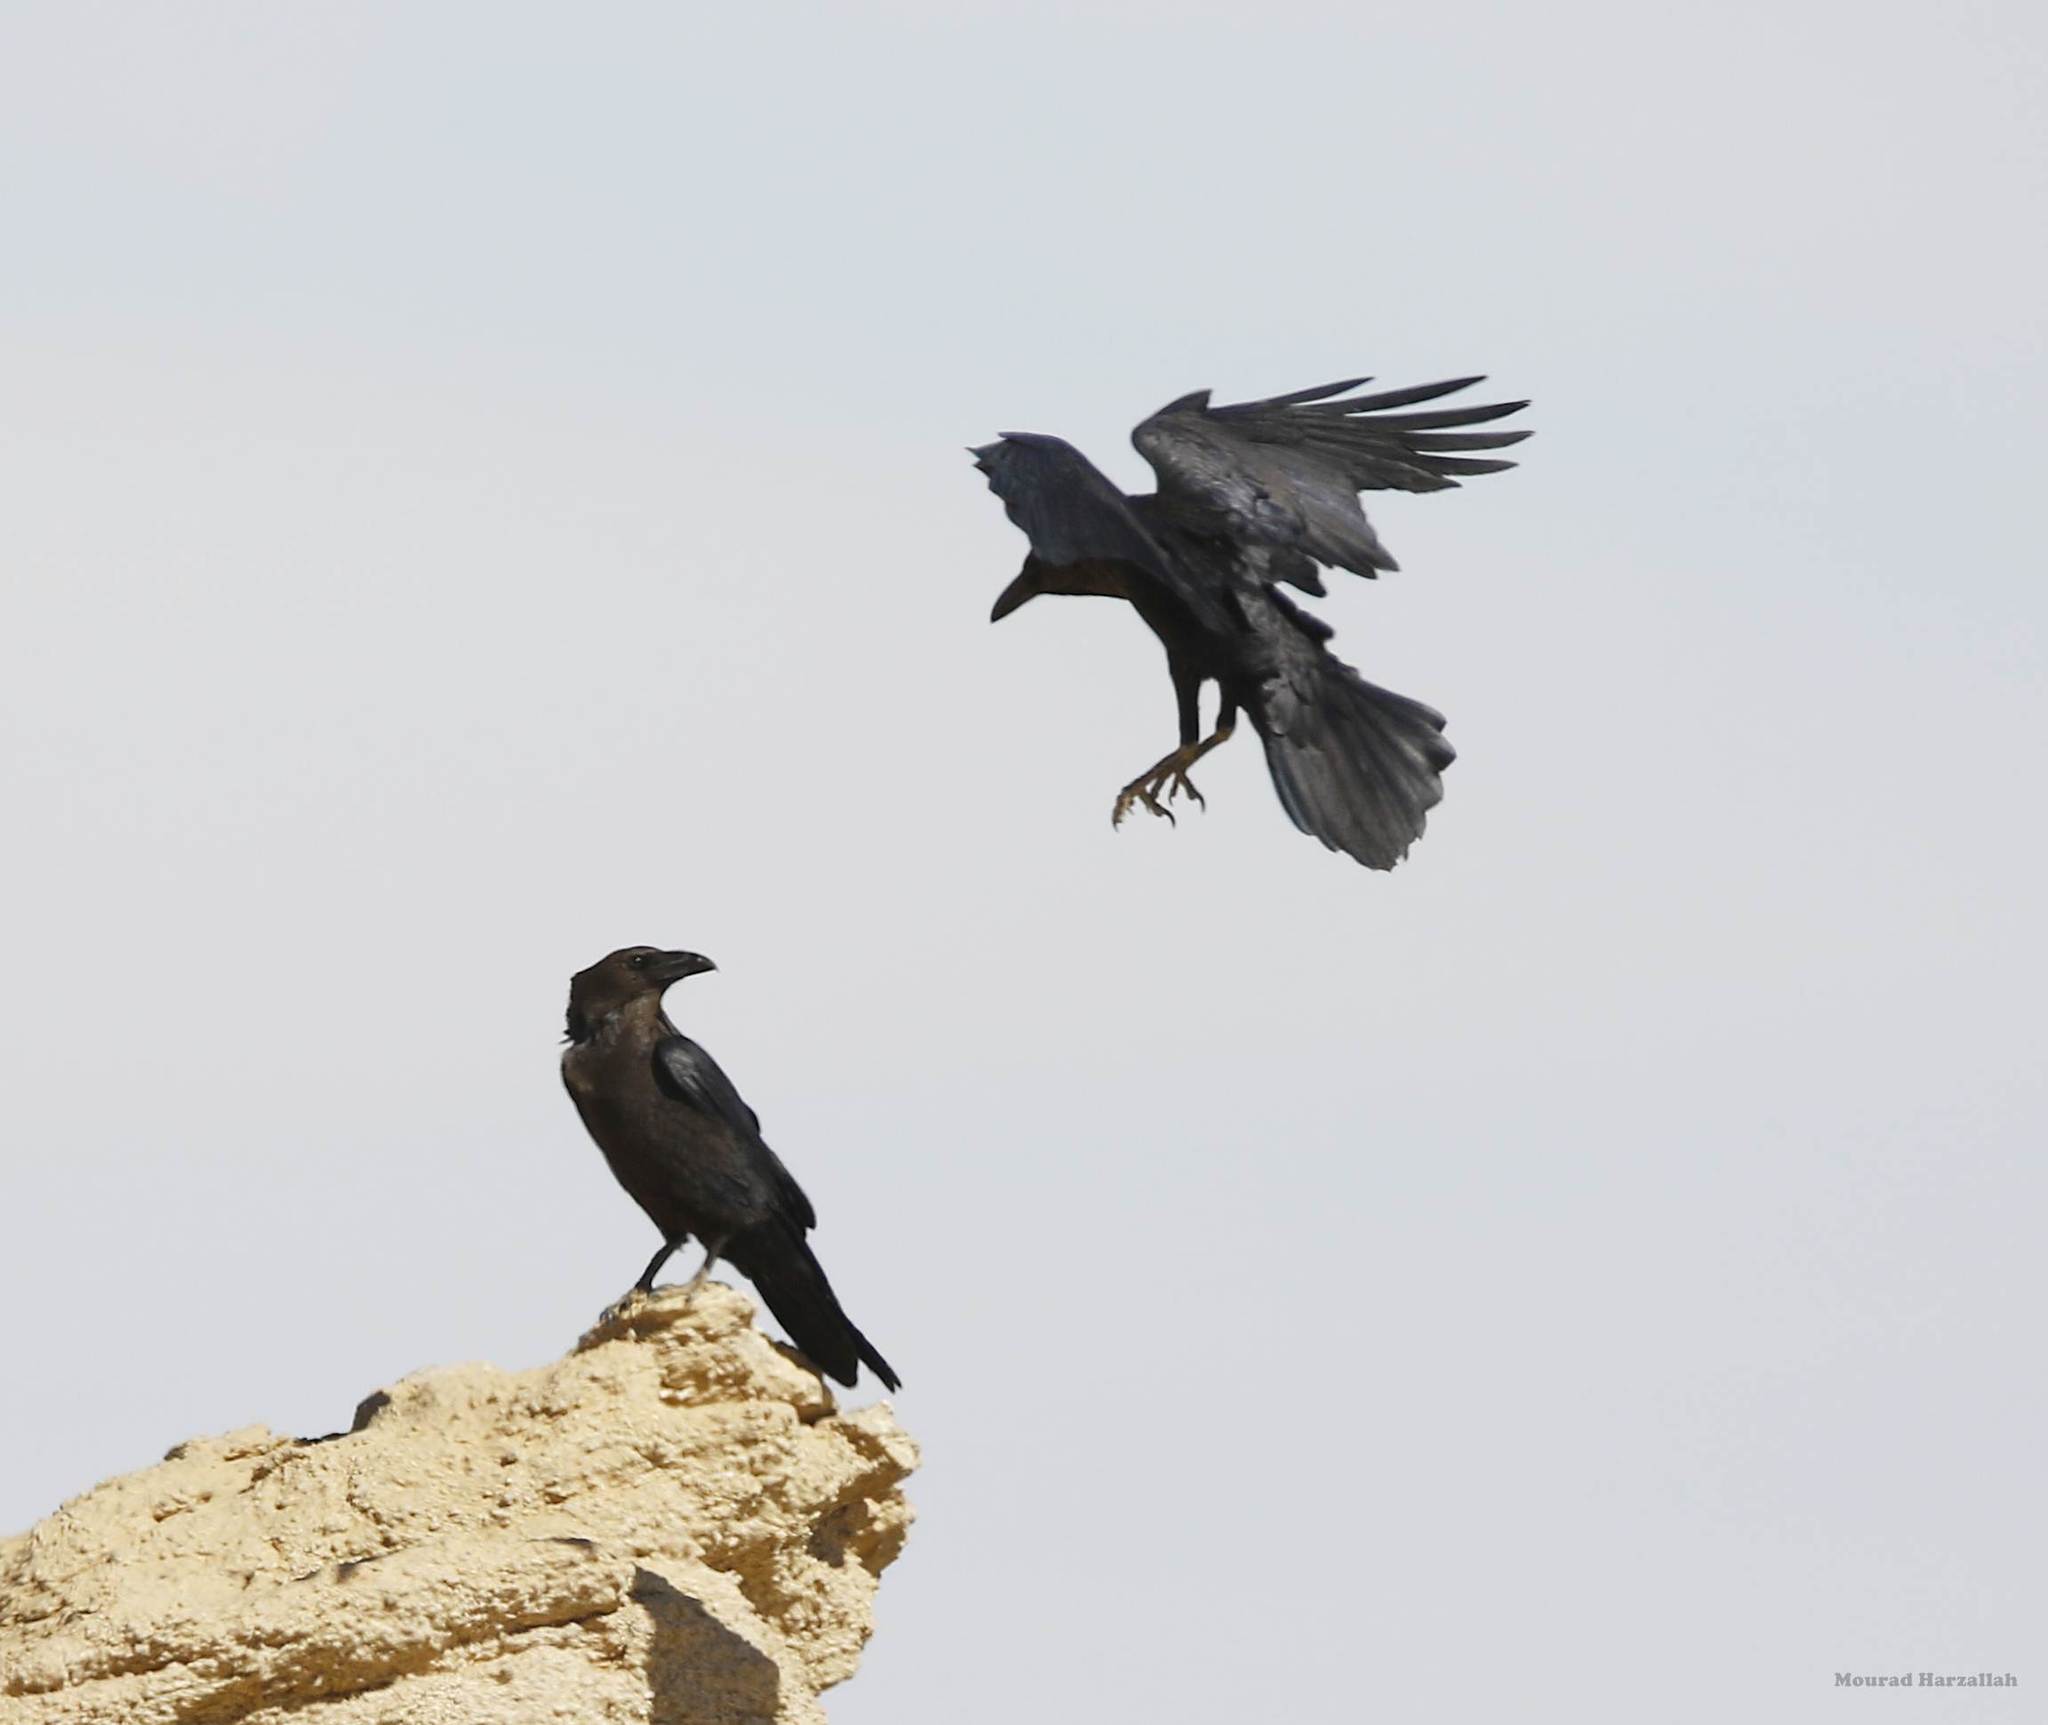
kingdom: Animalia
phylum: Chordata
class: Aves
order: Passeriformes
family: Corvidae
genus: Corvus
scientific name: Corvus ruficollis
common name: Brown-necked raven
